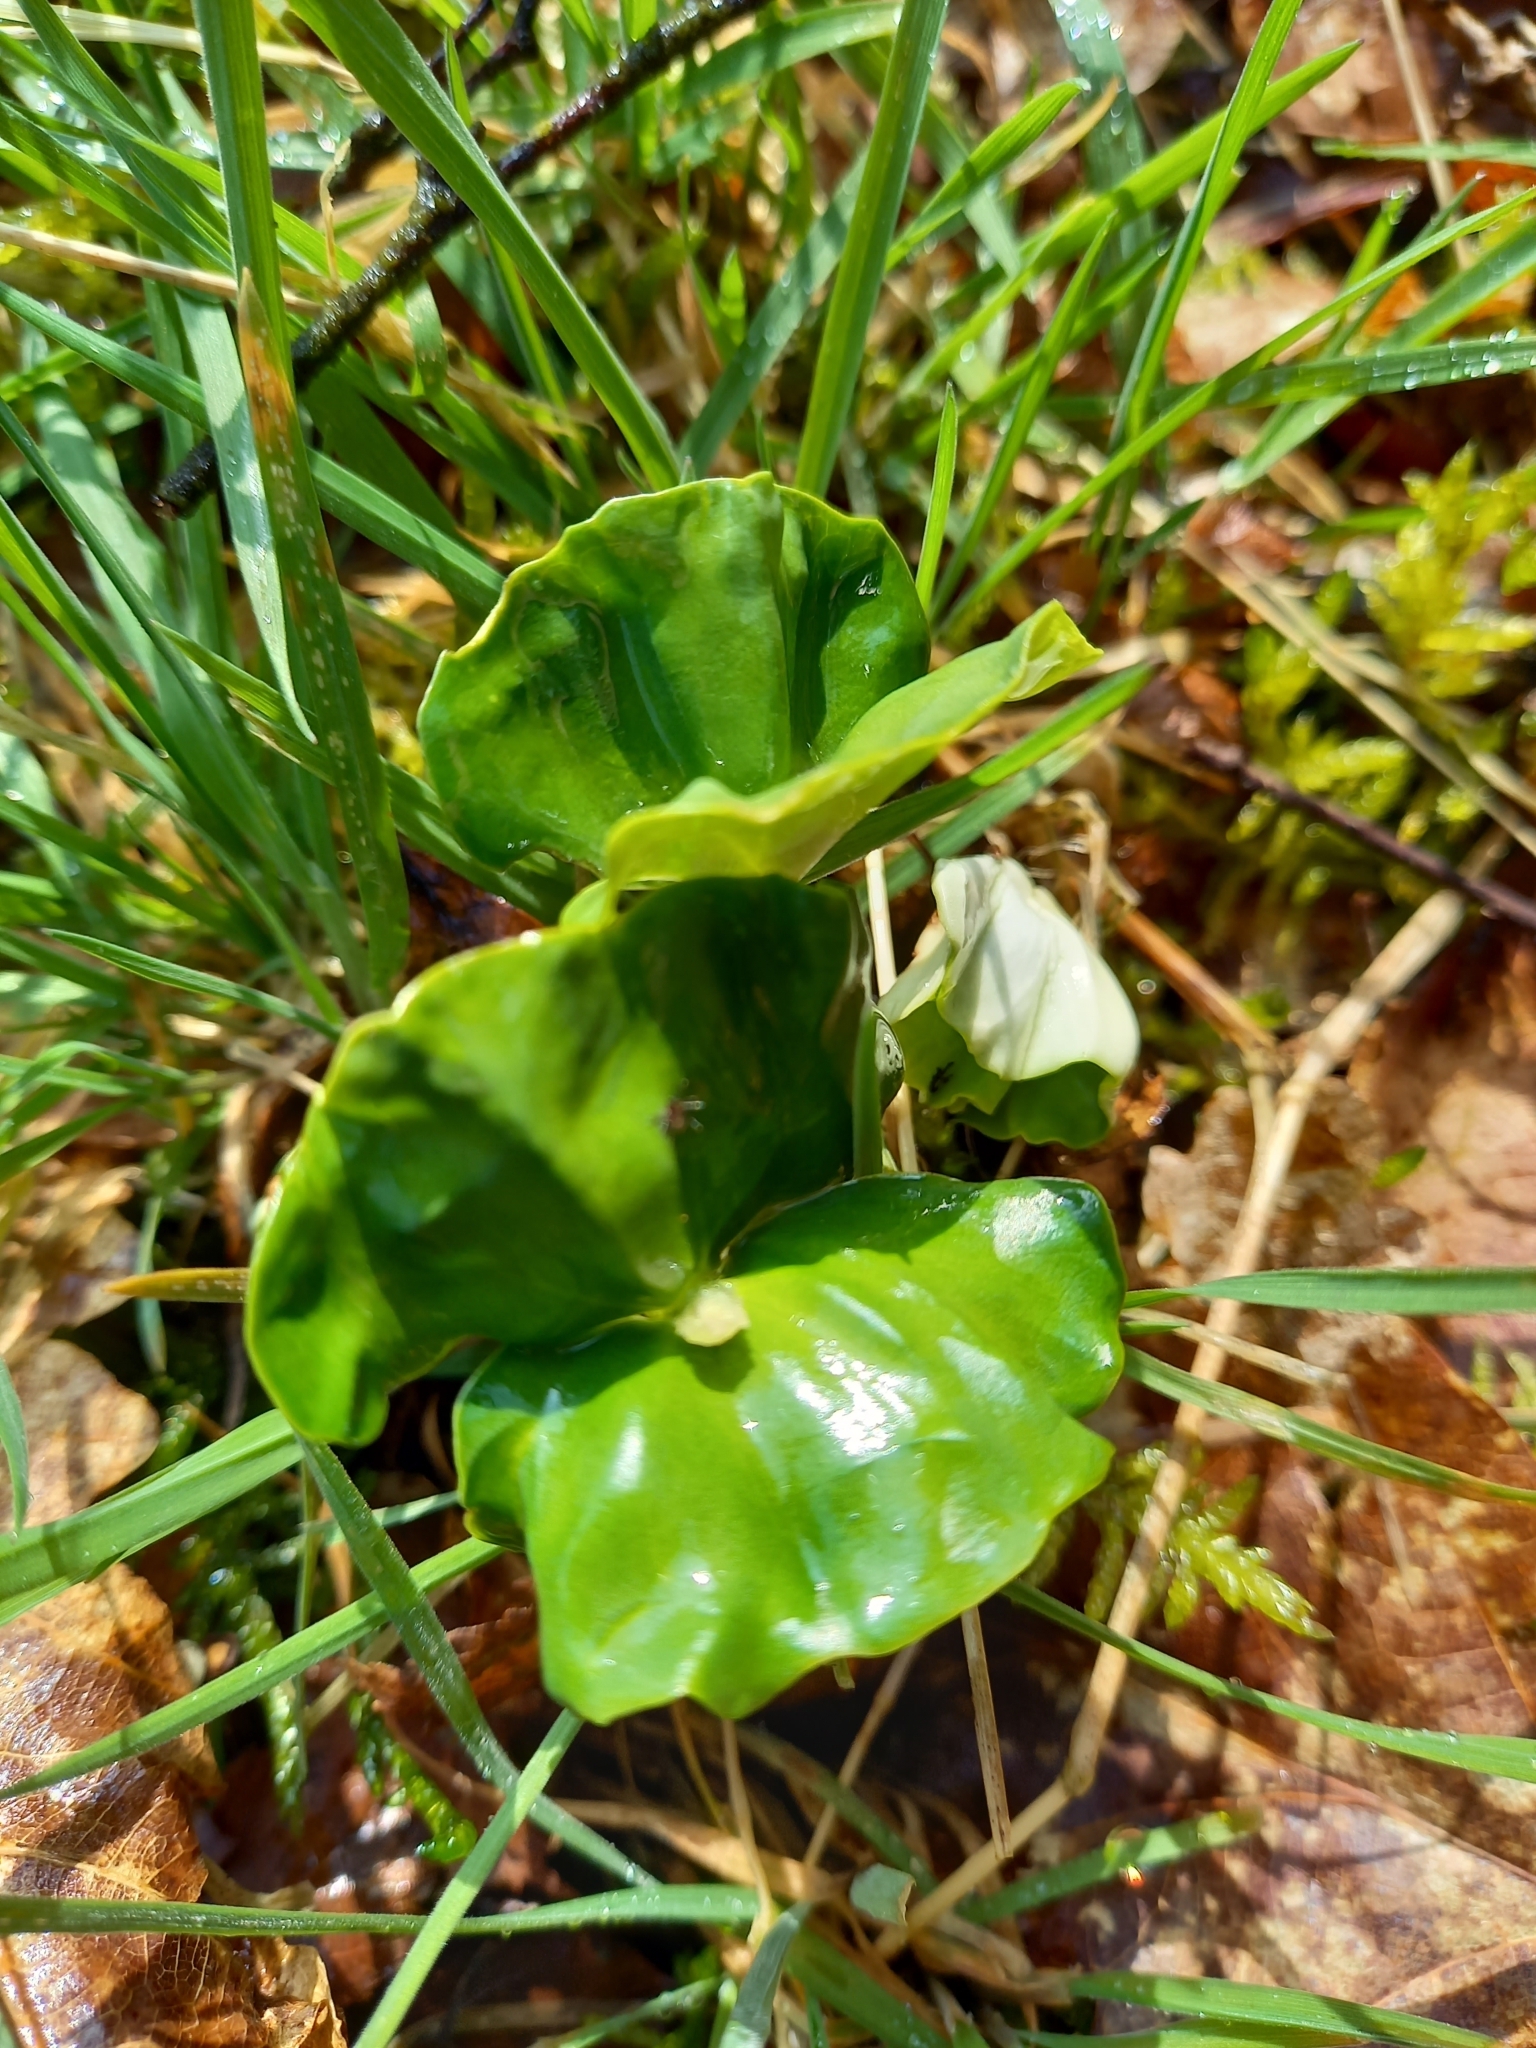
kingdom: Plantae
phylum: Tracheophyta
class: Magnoliopsida
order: Fagales
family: Fagaceae
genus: Fagus
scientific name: Fagus sylvatica
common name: Beech
